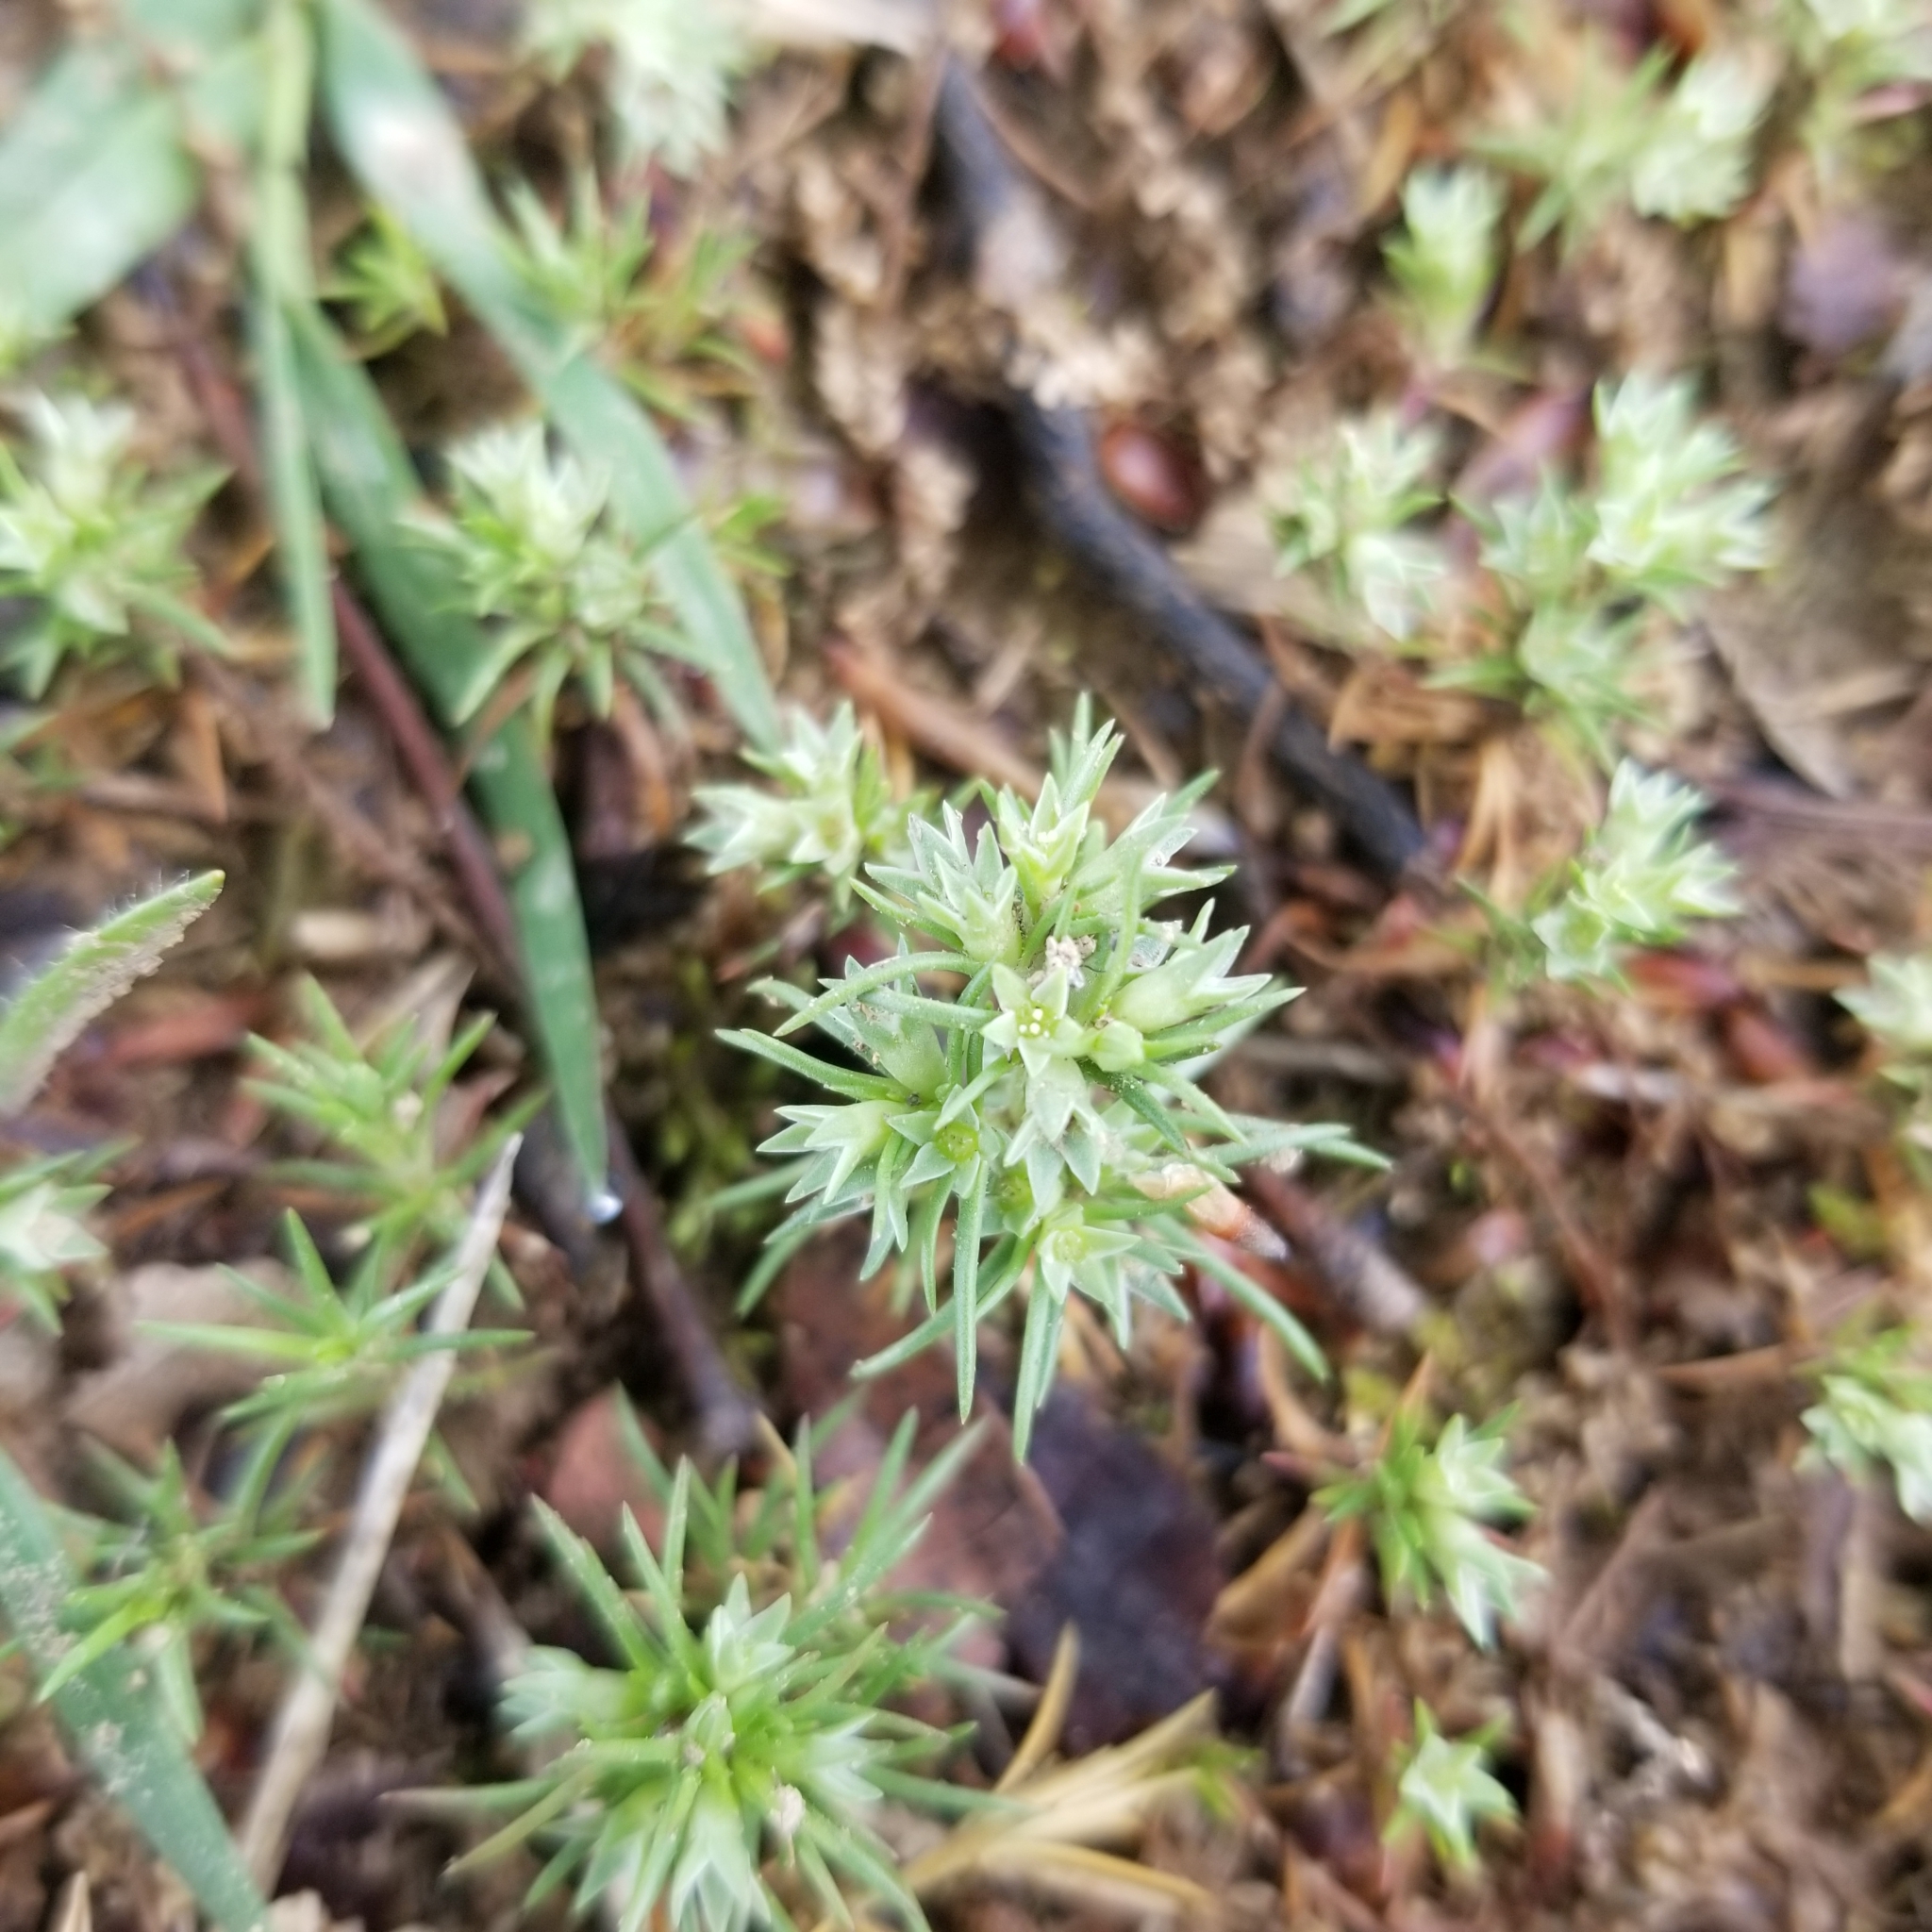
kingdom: Plantae
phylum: Tracheophyta
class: Magnoliopsida
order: Caryophyllales
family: Caryophyllaceae
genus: Scleranthus
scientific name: Scleranthus annuus
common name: Annual knawel
